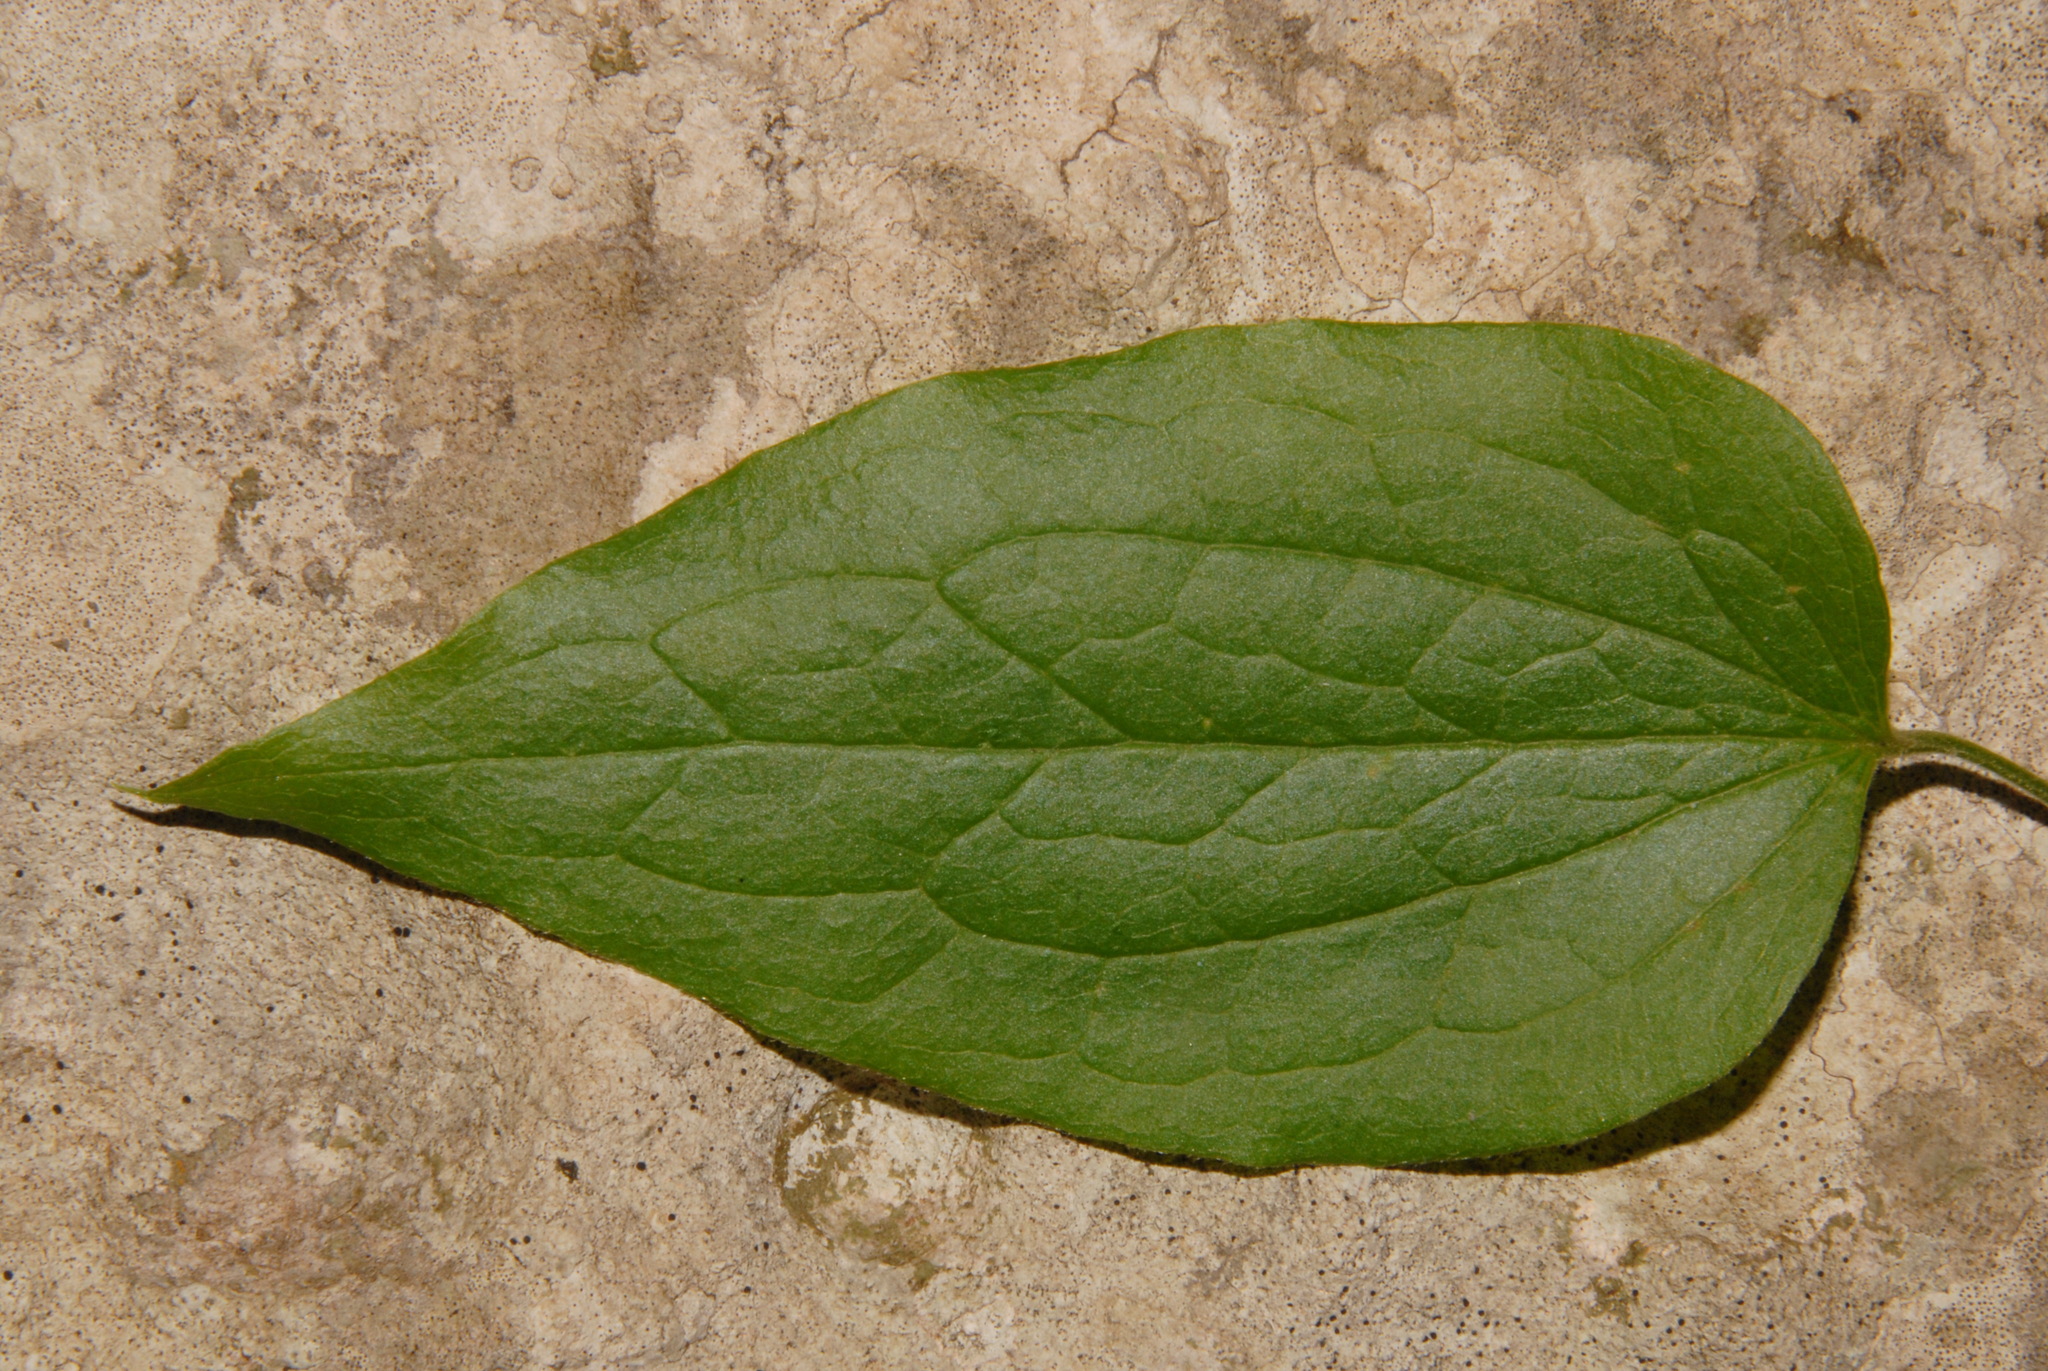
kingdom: Plantae
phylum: Tracheophyta
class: Magnoliopsida
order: Ranunculales
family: Ranunculaceae
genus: Clematis
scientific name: Clematis morefieldii
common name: Morefield's clematis
